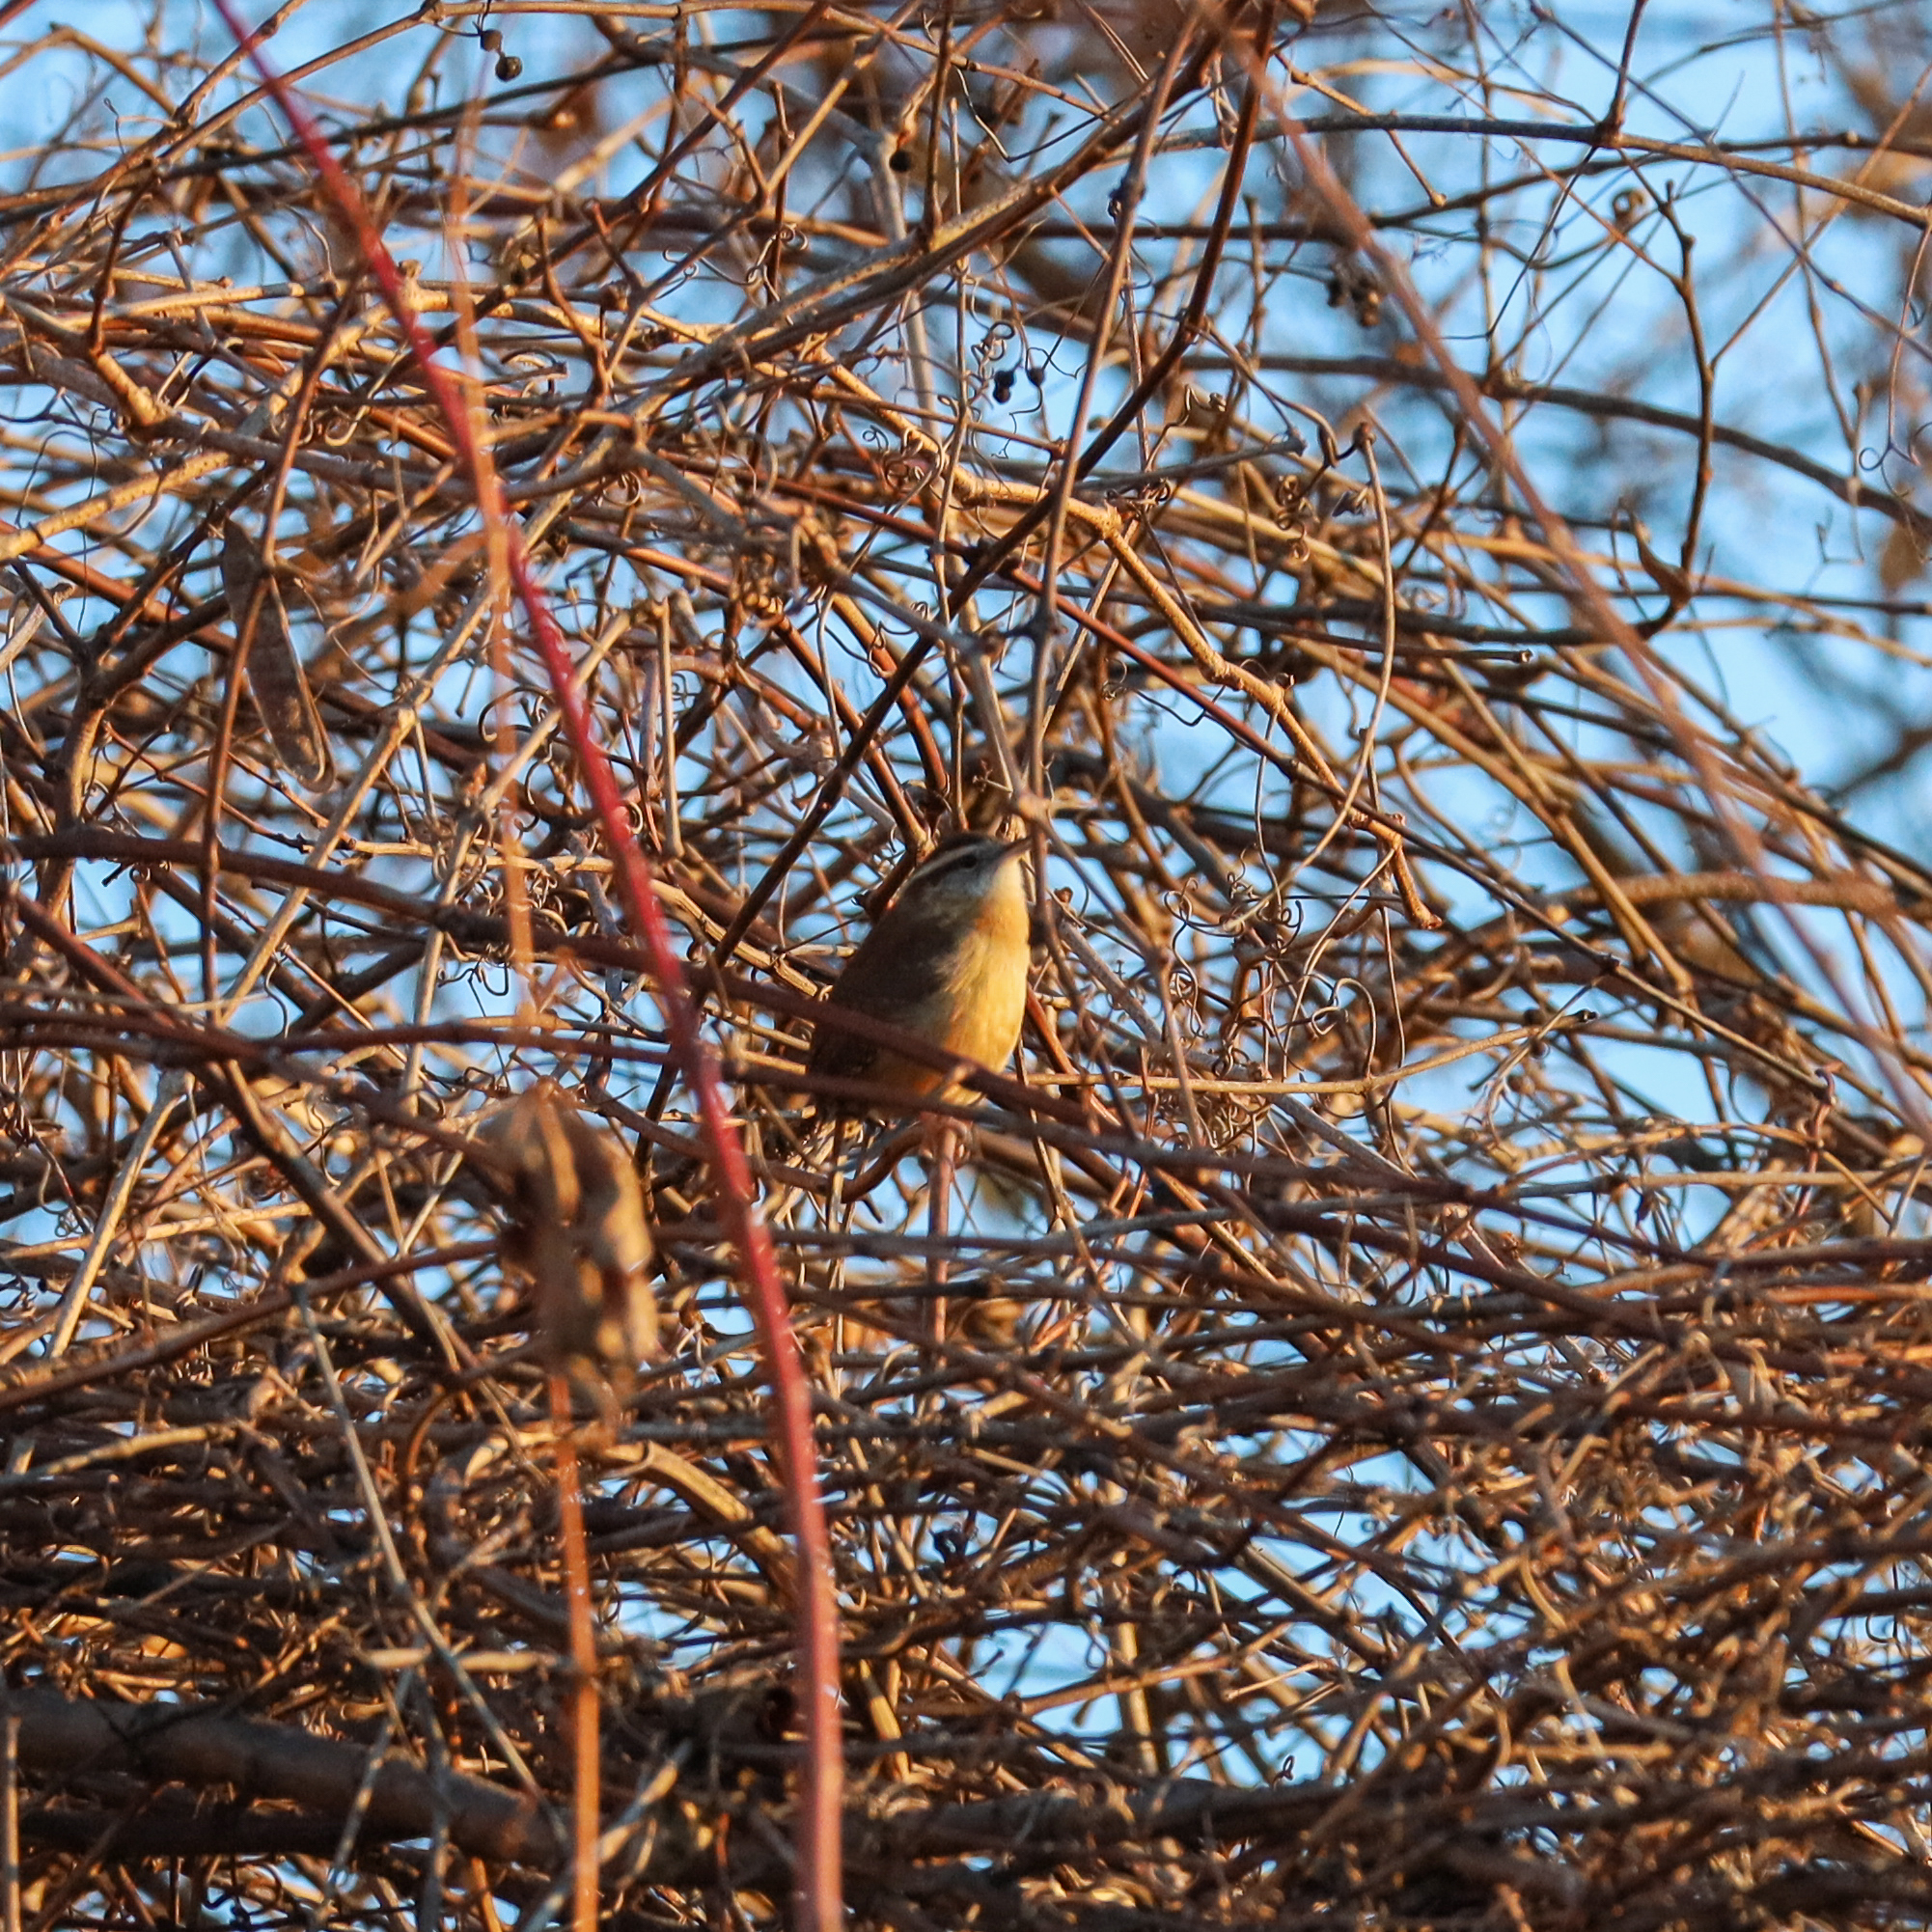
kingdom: Animalia
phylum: Chordata
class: Aves
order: Passeriformes
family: Troglodytidae
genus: Thryothorus
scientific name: Thryothorus ludovicianus
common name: Carolina wren
